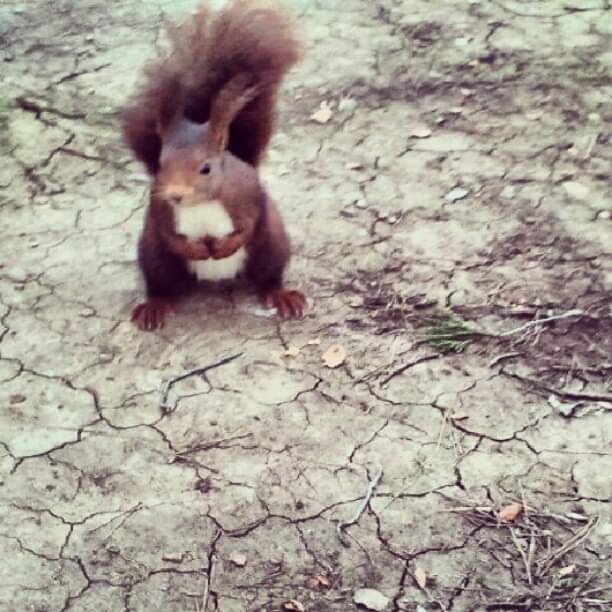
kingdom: Animalia
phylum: Chordata
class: Mammalia
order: Rodentia
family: Sciuridae
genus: Sciurus
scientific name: Sciurus vulgaris
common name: Eurasian red squirrel
